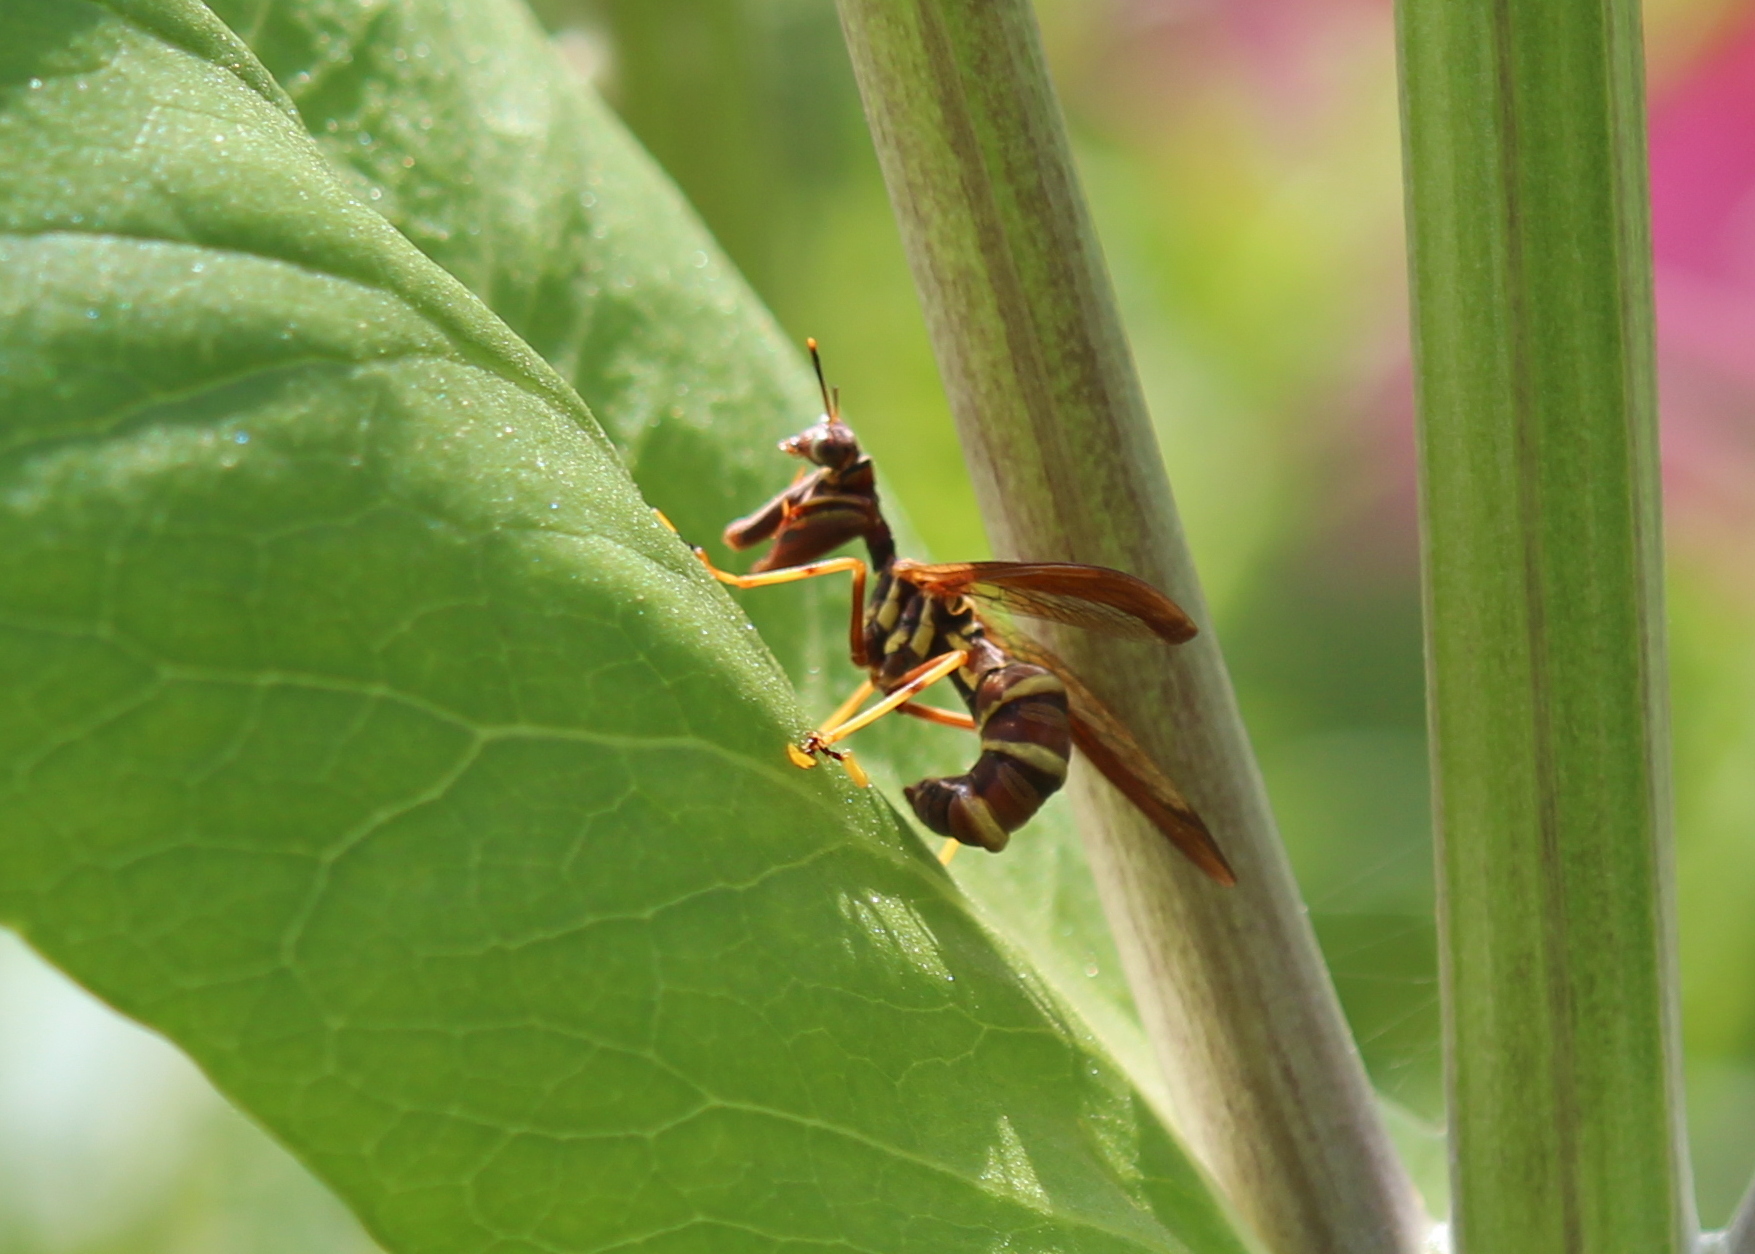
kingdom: Animalia
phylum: Arthropoda
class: Insecta
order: Neuroptera
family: Mantispidae
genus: Climaciella
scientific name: Climaciella brunnea
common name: Brown wasp mantidfly
